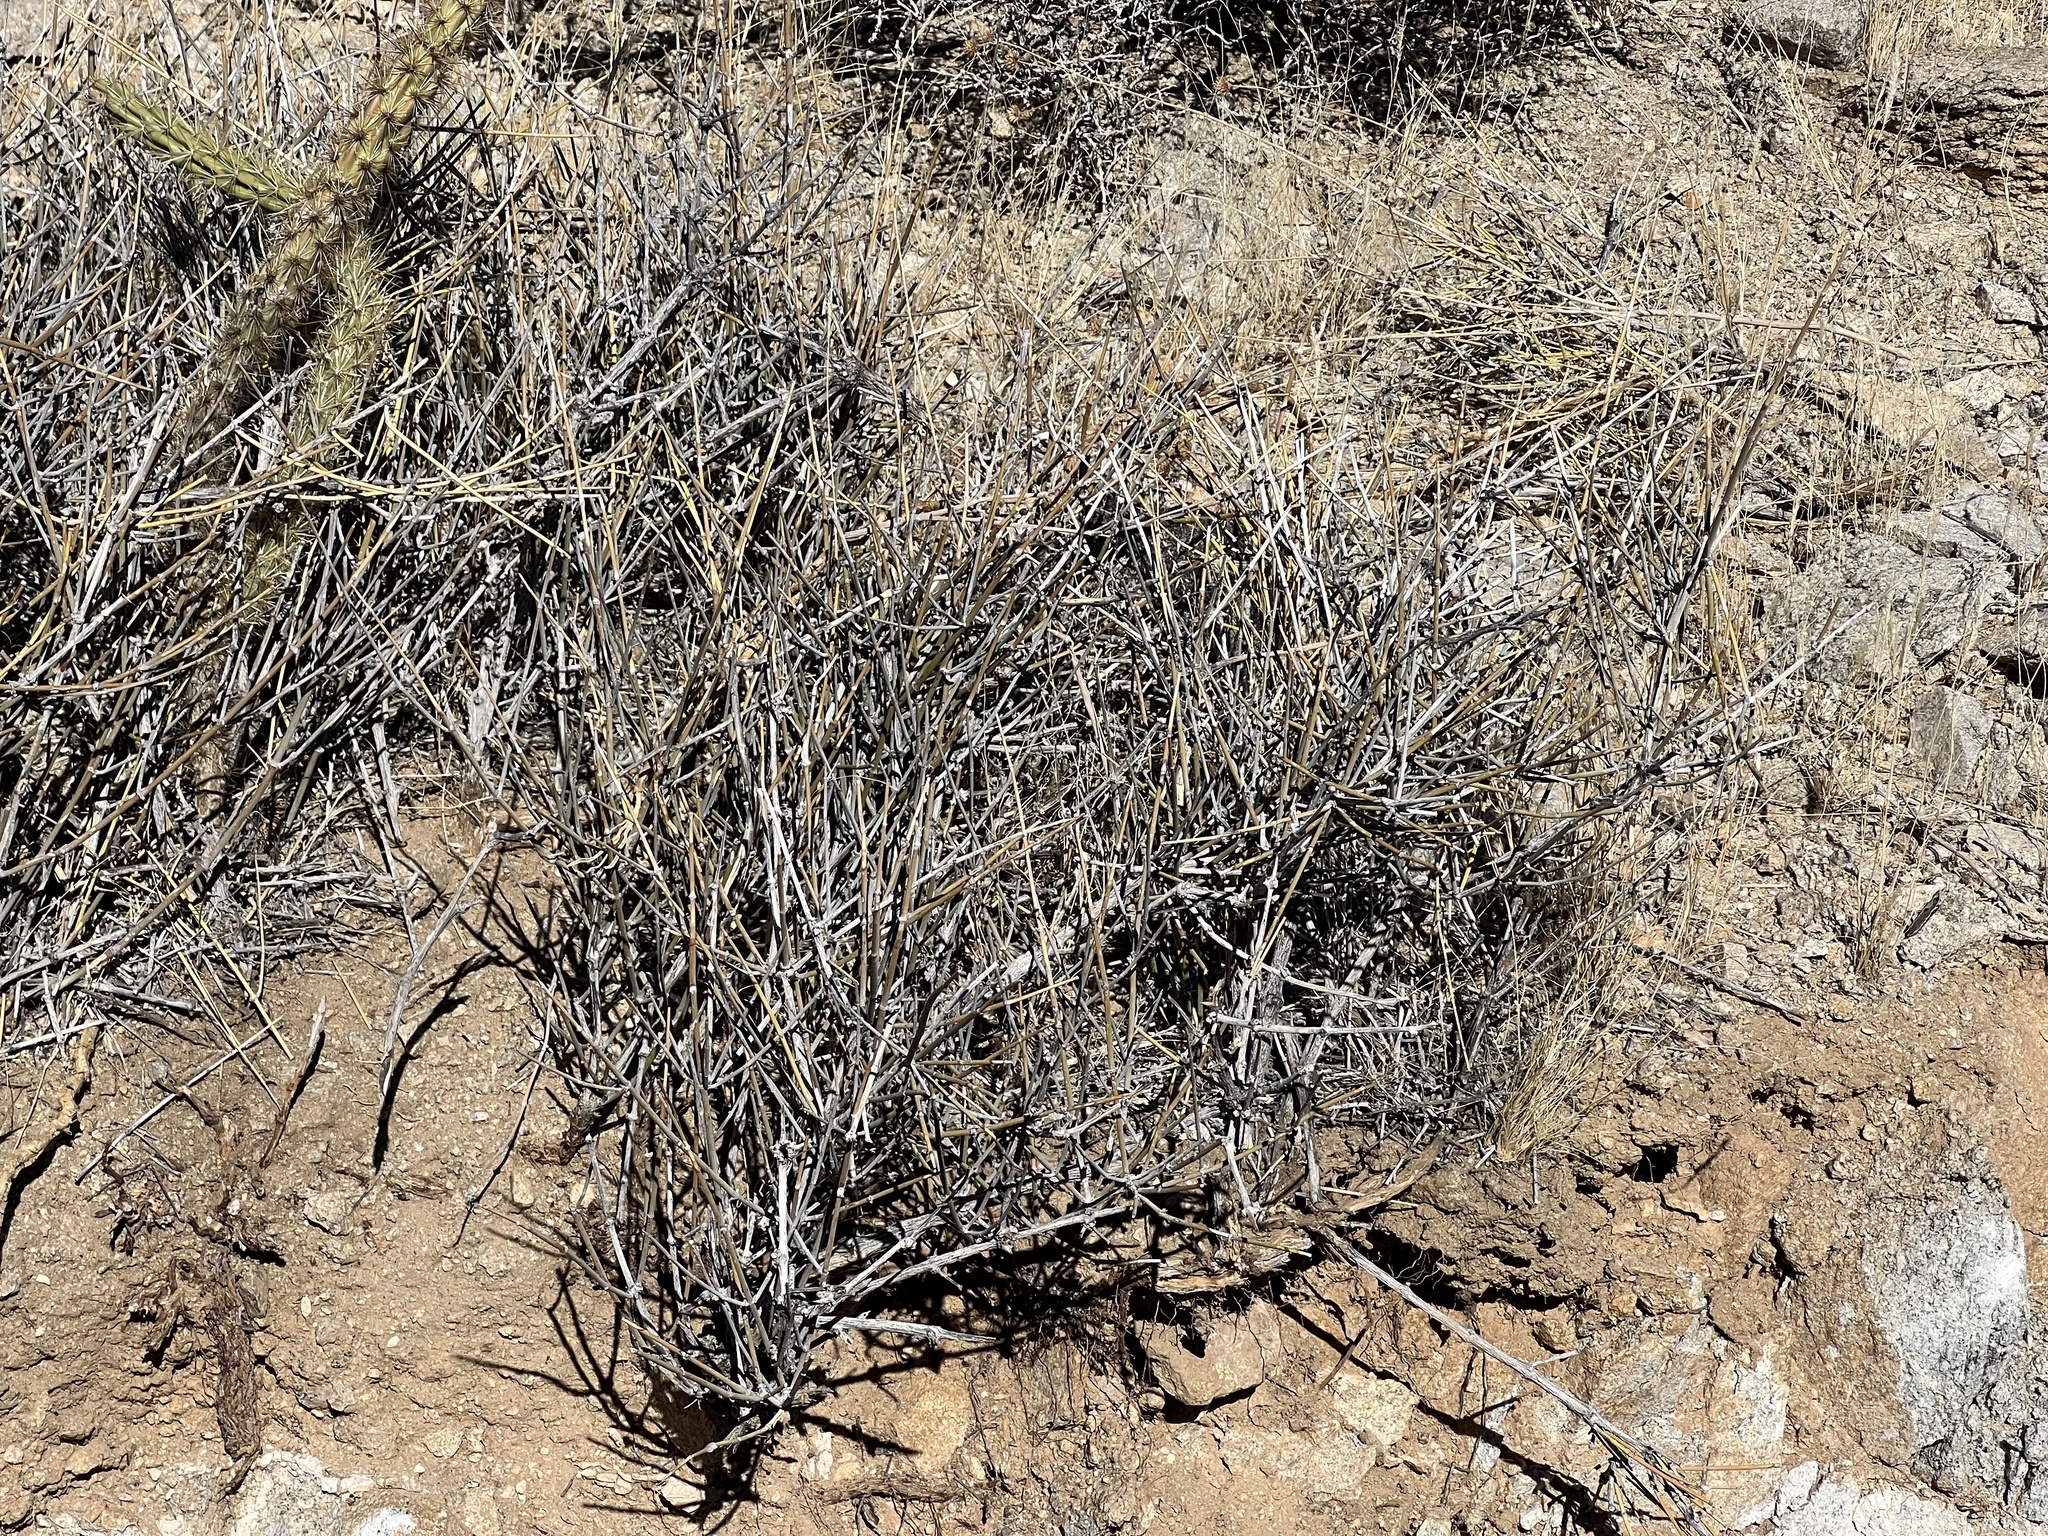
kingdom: Plantae
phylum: Tracheophyta
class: Gnetopsida
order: Ephedrales
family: Ephedraceae
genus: Ephedra
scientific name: Ephedra nevadensis
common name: Gray ephedra
